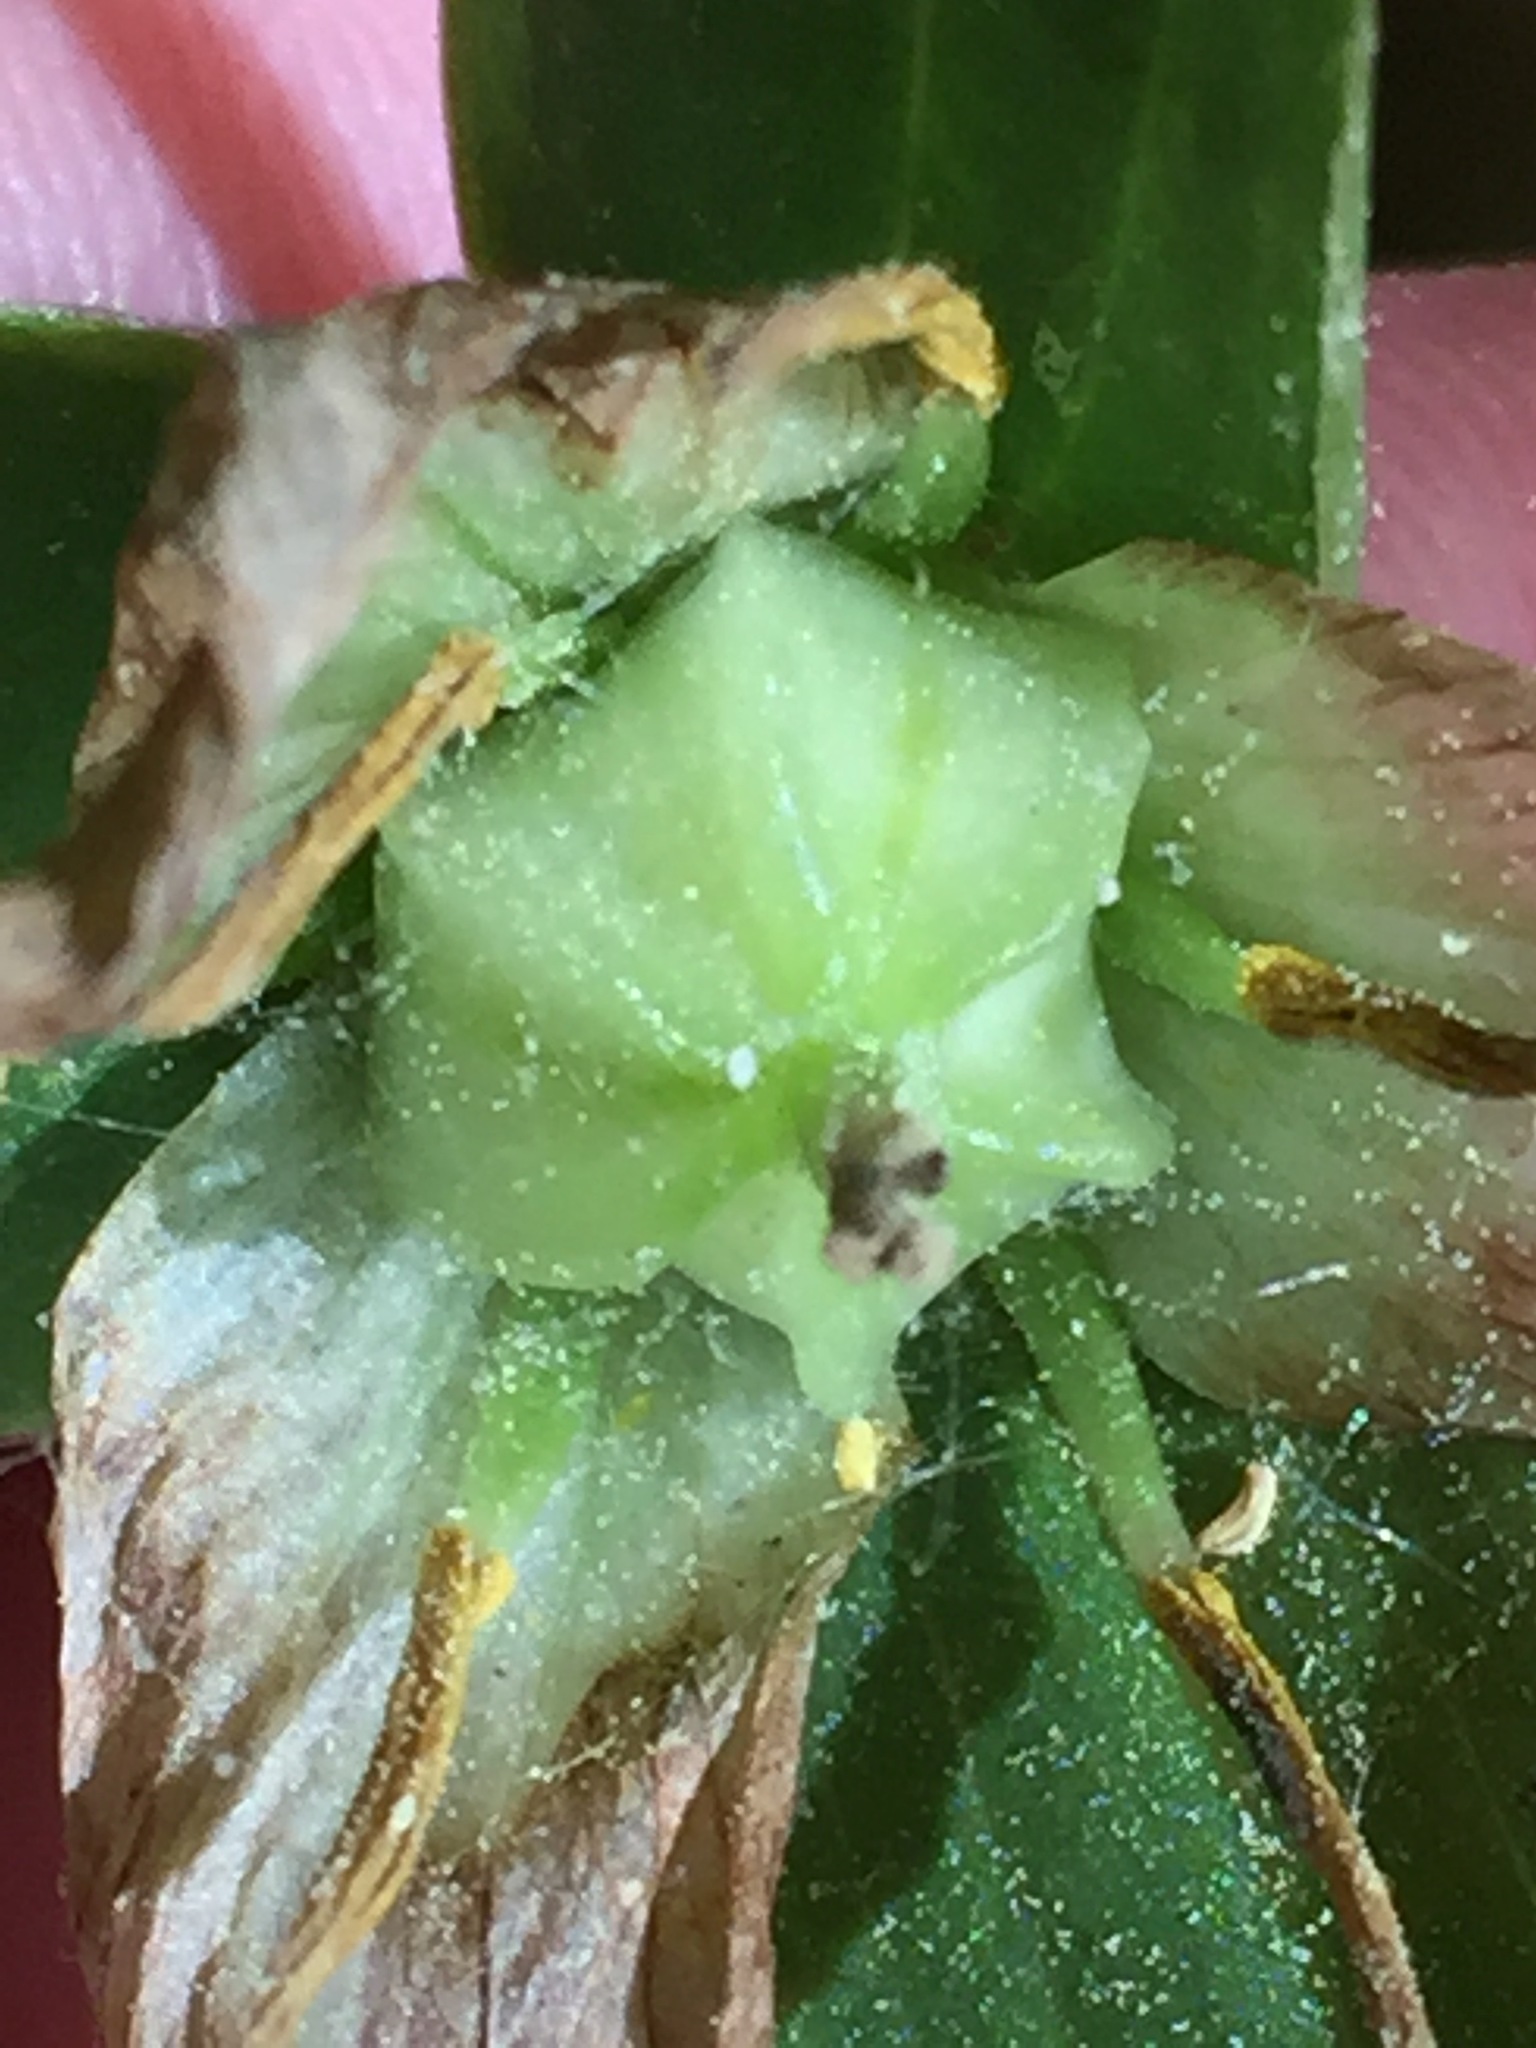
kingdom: Plantae
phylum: Tracheophyta
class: Liliopsida
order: Liliales
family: Melanthiaceae
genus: Trillium
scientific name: Trillium grandiflorum
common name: Great white trillium
